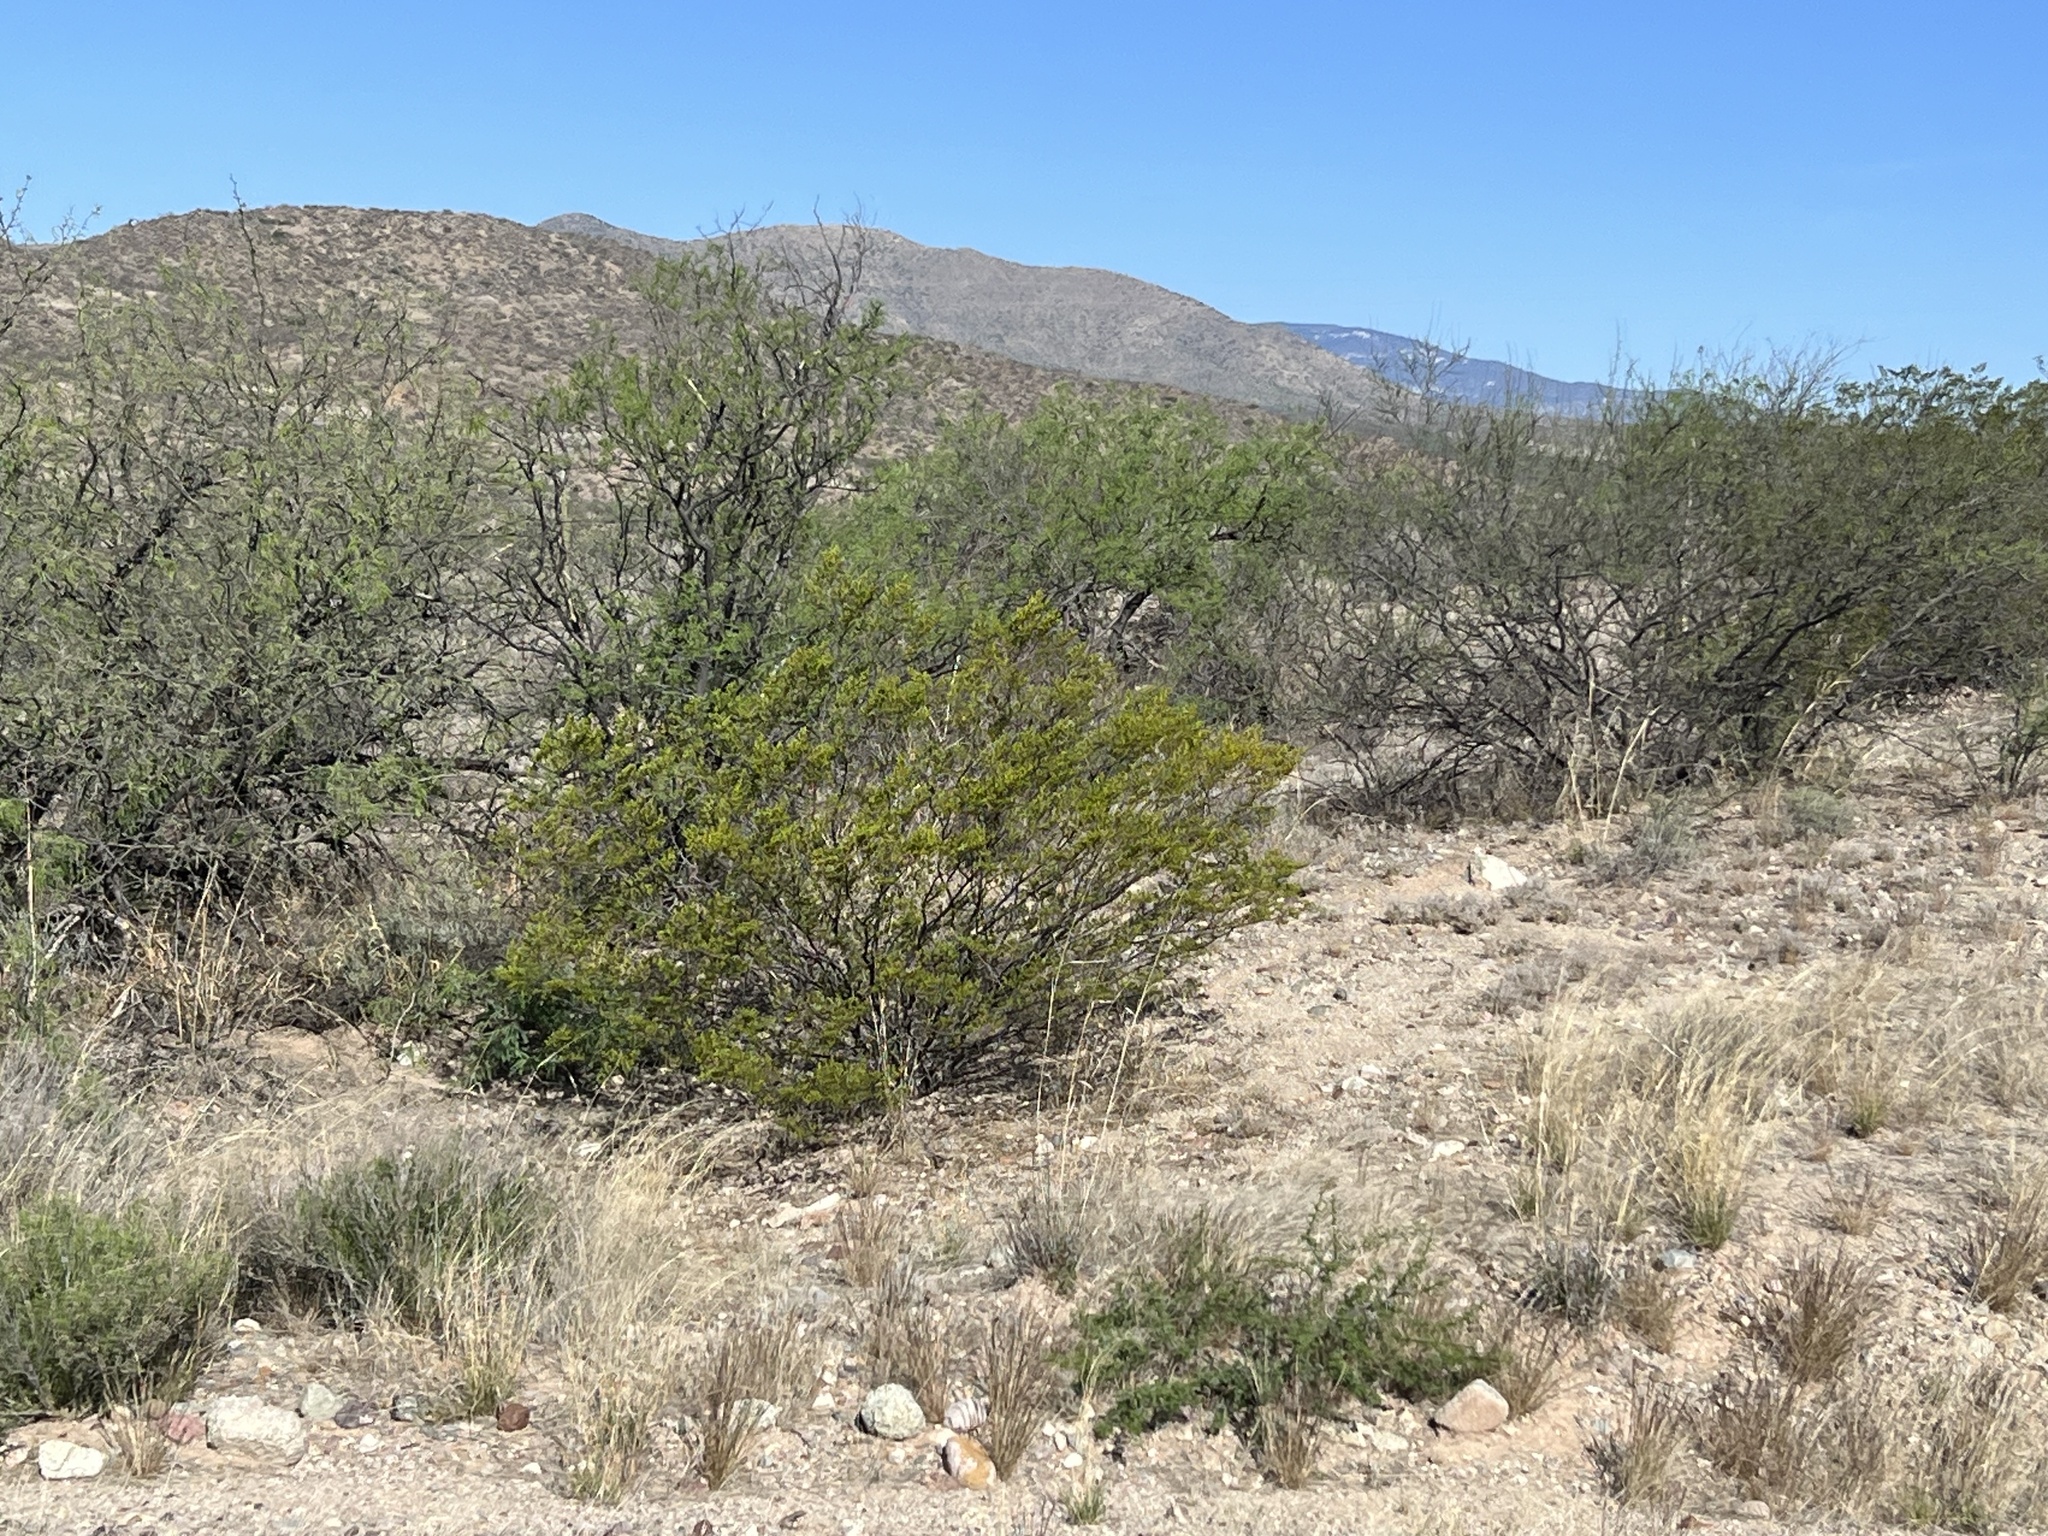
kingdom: Plantae
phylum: Tracheophyta
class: Magnoliopsida
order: Zygophyllales
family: Zygophyllaceae
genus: Larrea
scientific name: Larrea tridentata
